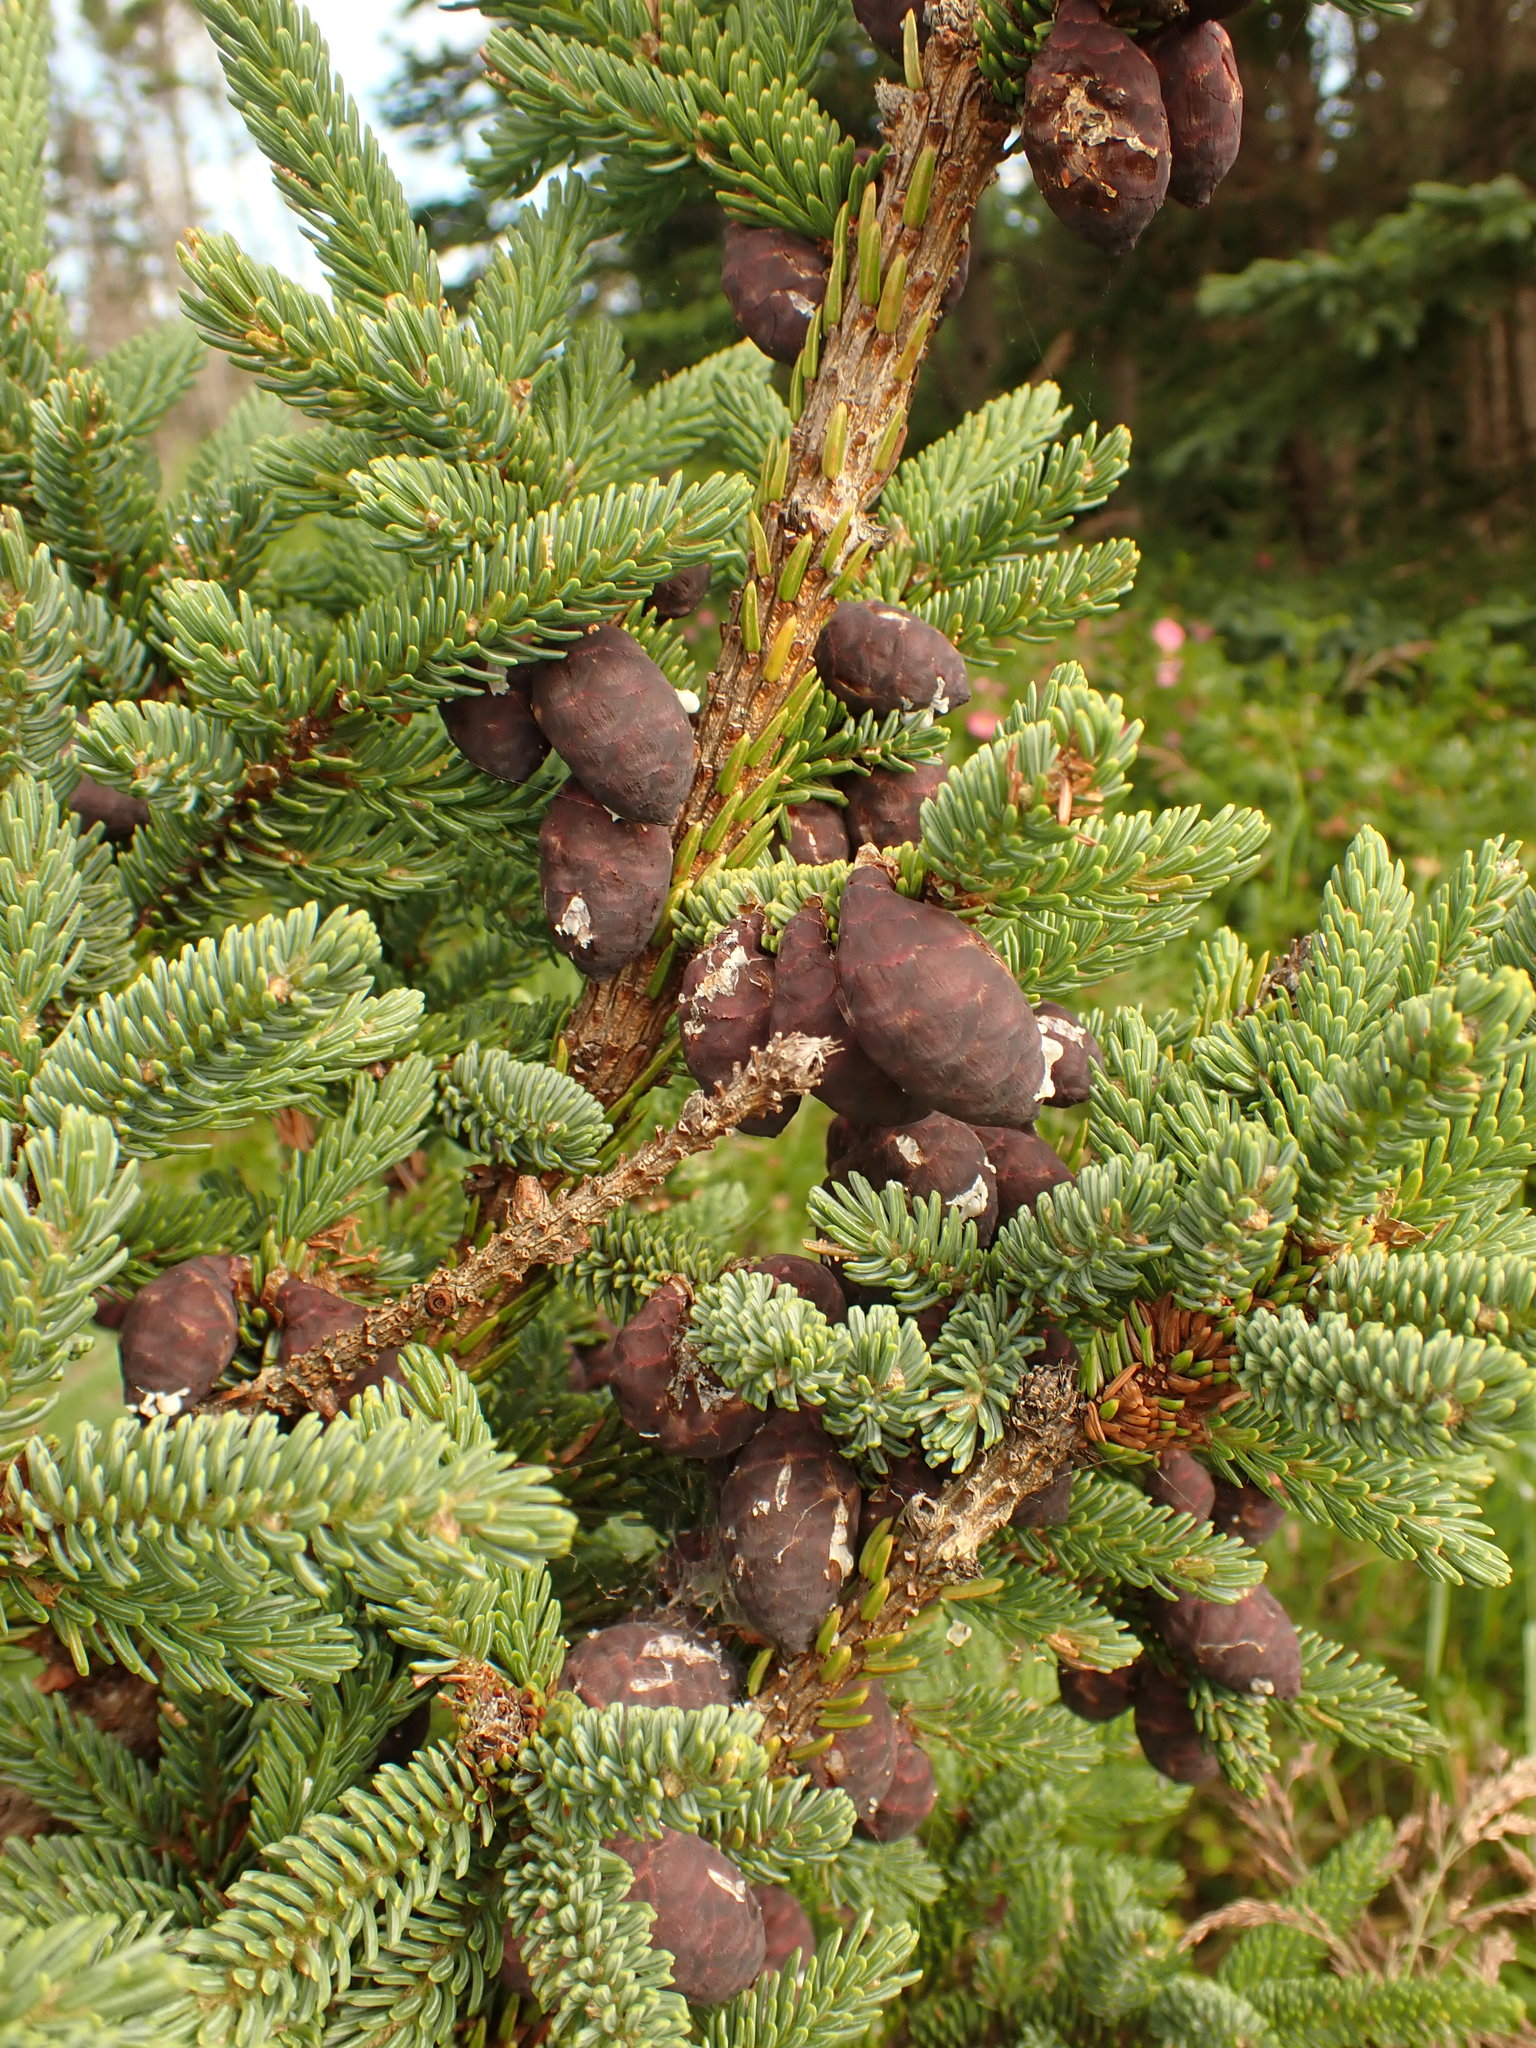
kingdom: Plantae
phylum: Tracheophyta
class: Pinopsida
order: Pinales
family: Pinaceae
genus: Picea
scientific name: Picea mariana
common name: Black spruce
